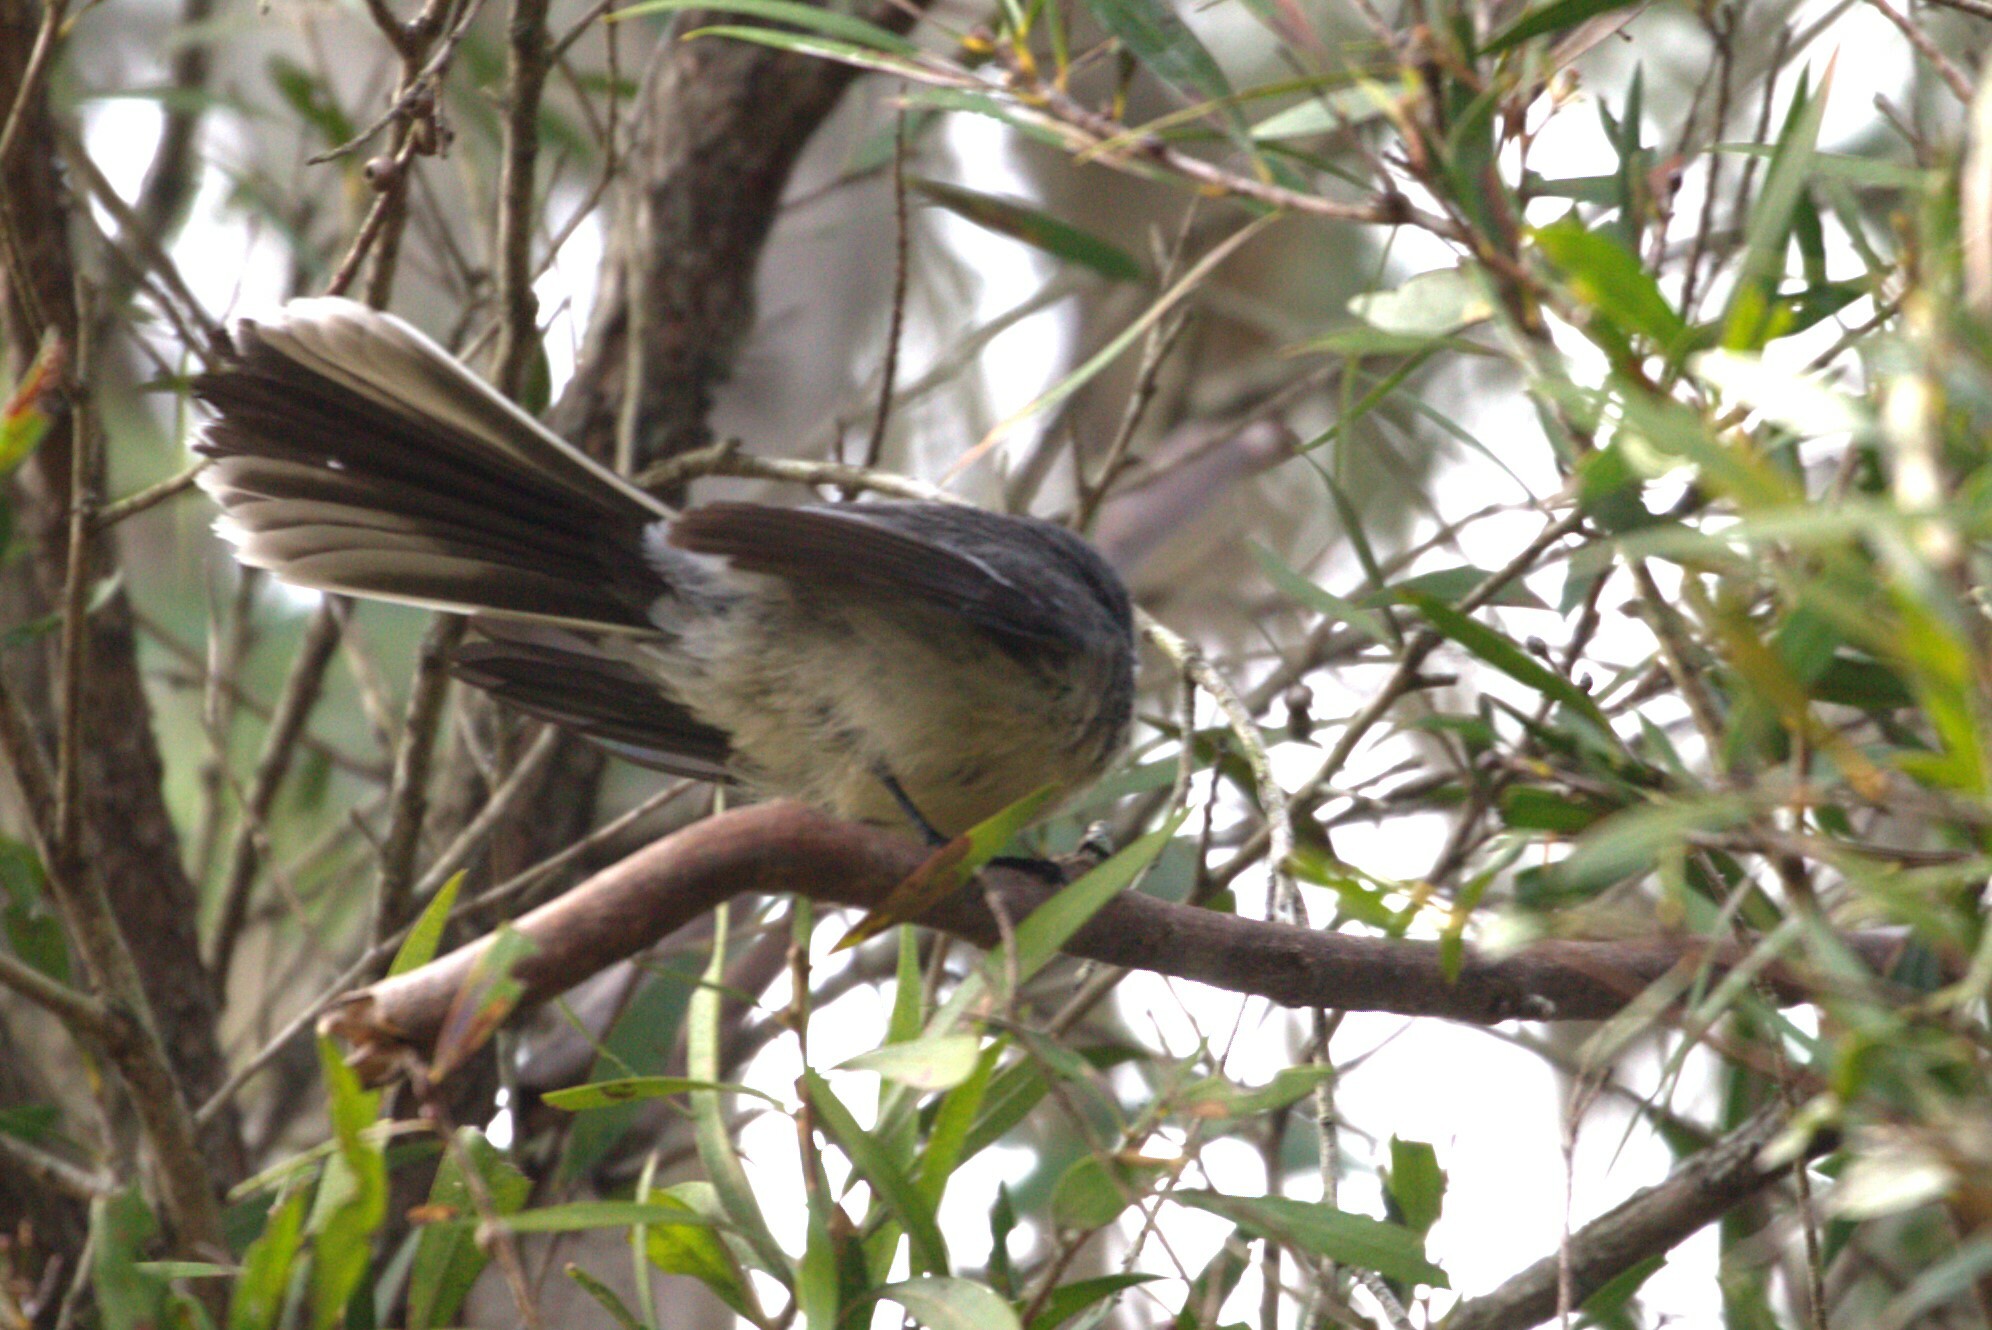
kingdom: Animalia
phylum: Chordata
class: Aves
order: Passeriformes
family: Rhipiduridae
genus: Rhipidura
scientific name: Rhipidura albiscapa
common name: Grey fantail
